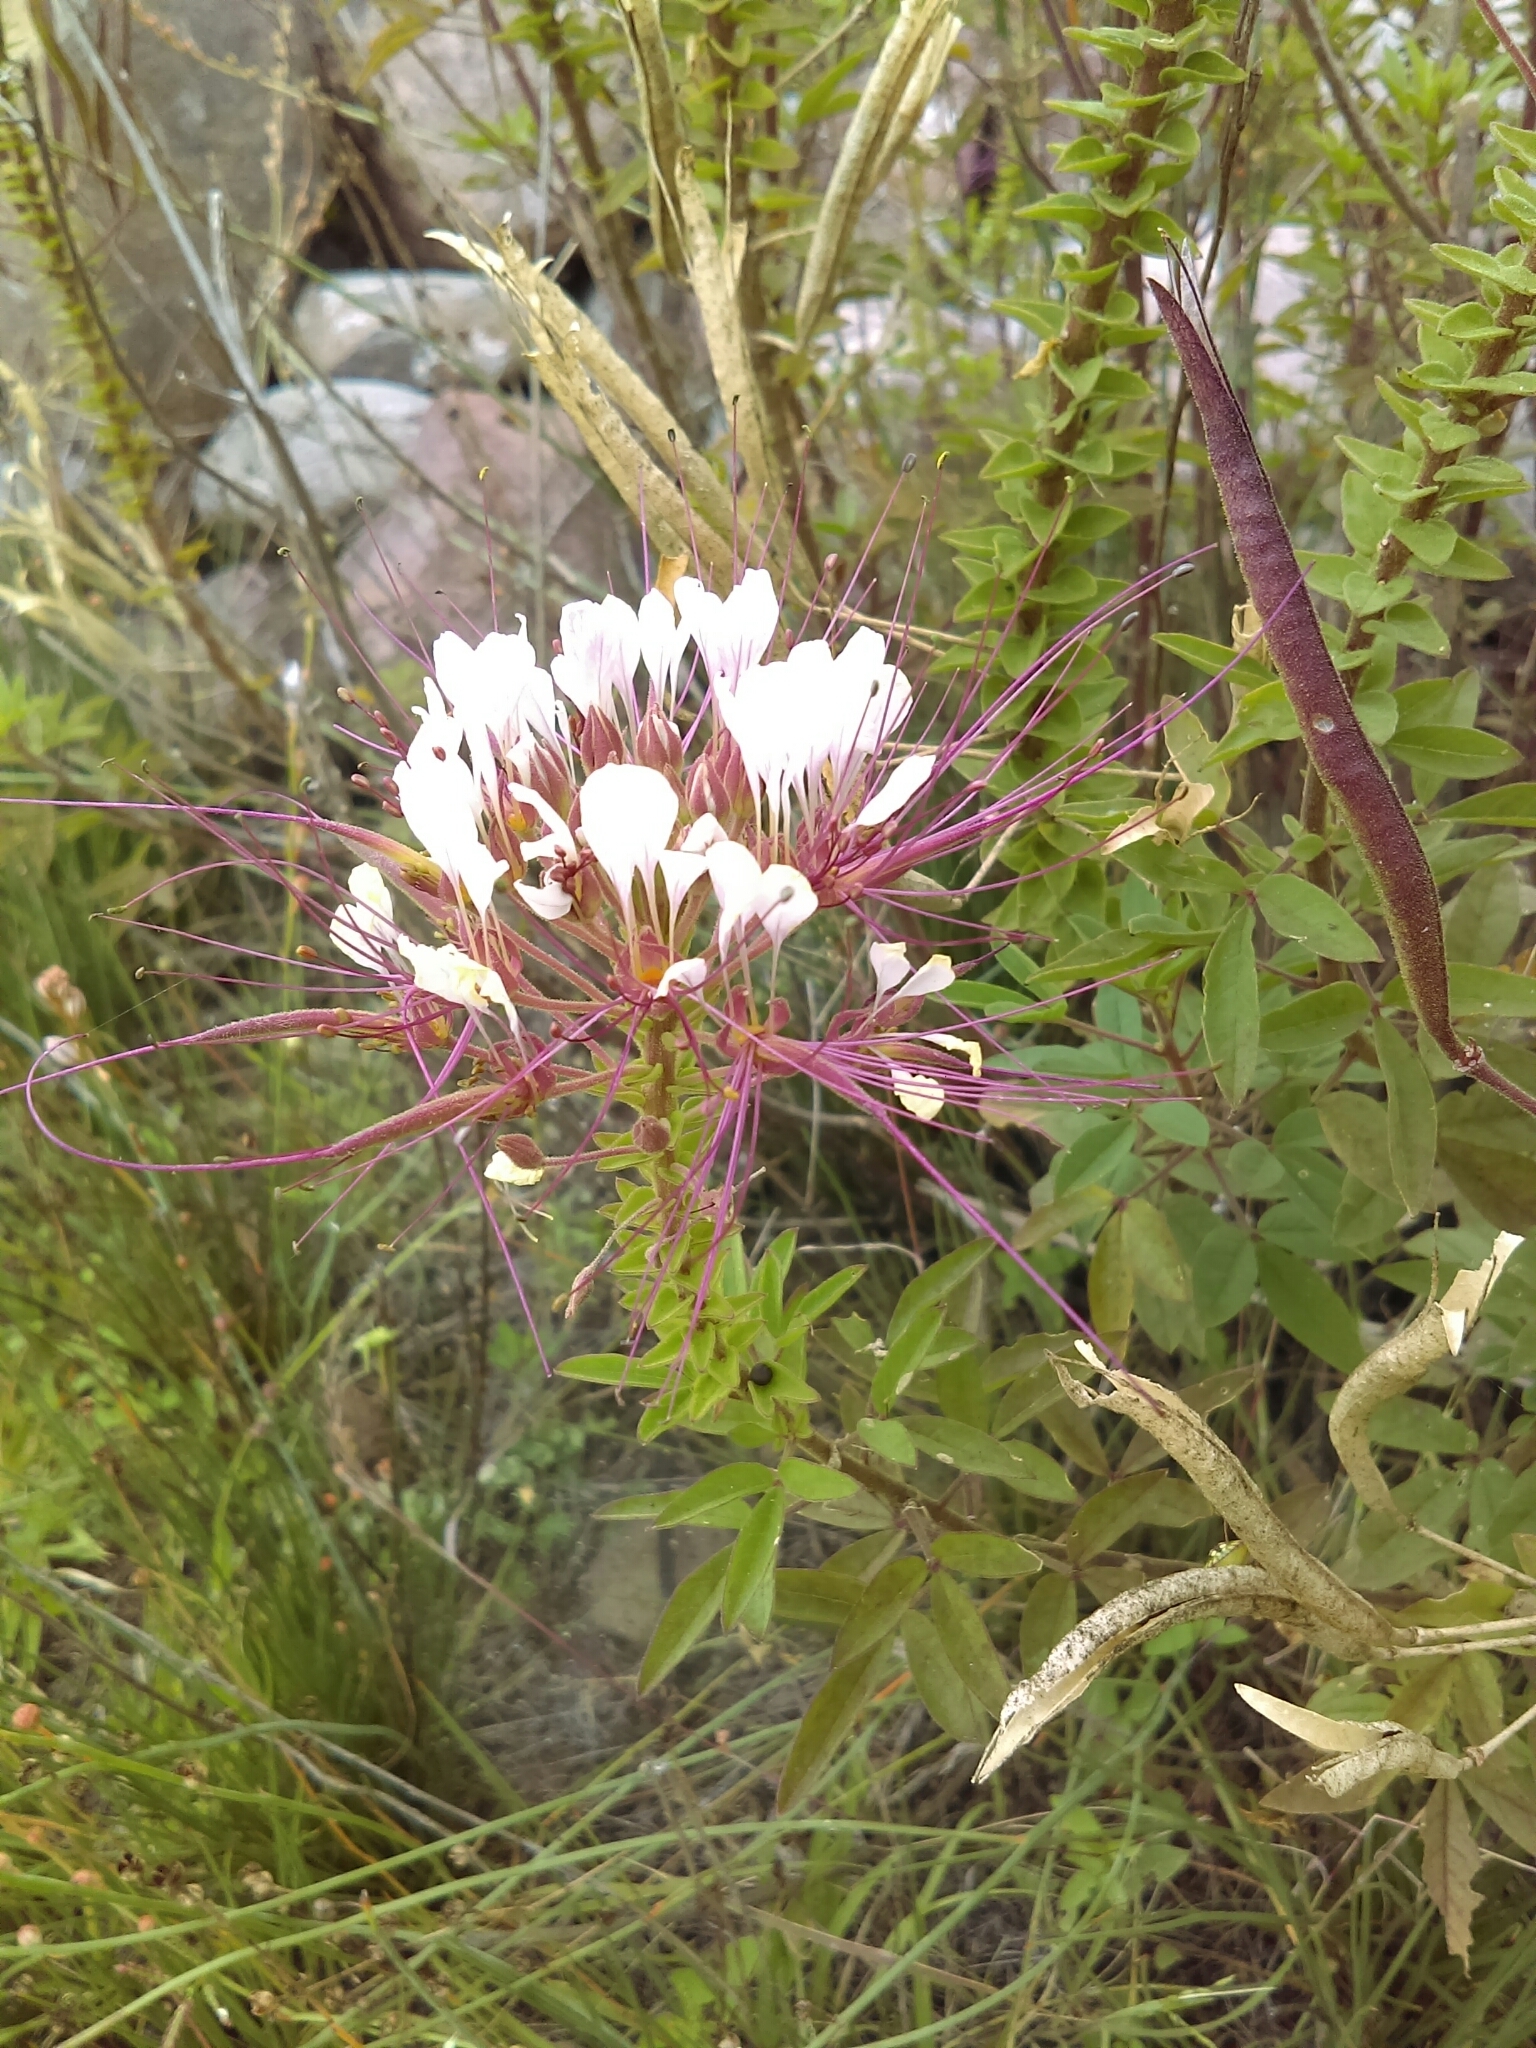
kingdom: Plantae
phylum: Tracheophyta
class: Magnoliopsida
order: Brassicales
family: Cleomaceae
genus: Polanisia
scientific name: Polanisia dodecandra
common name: Clammyweed
